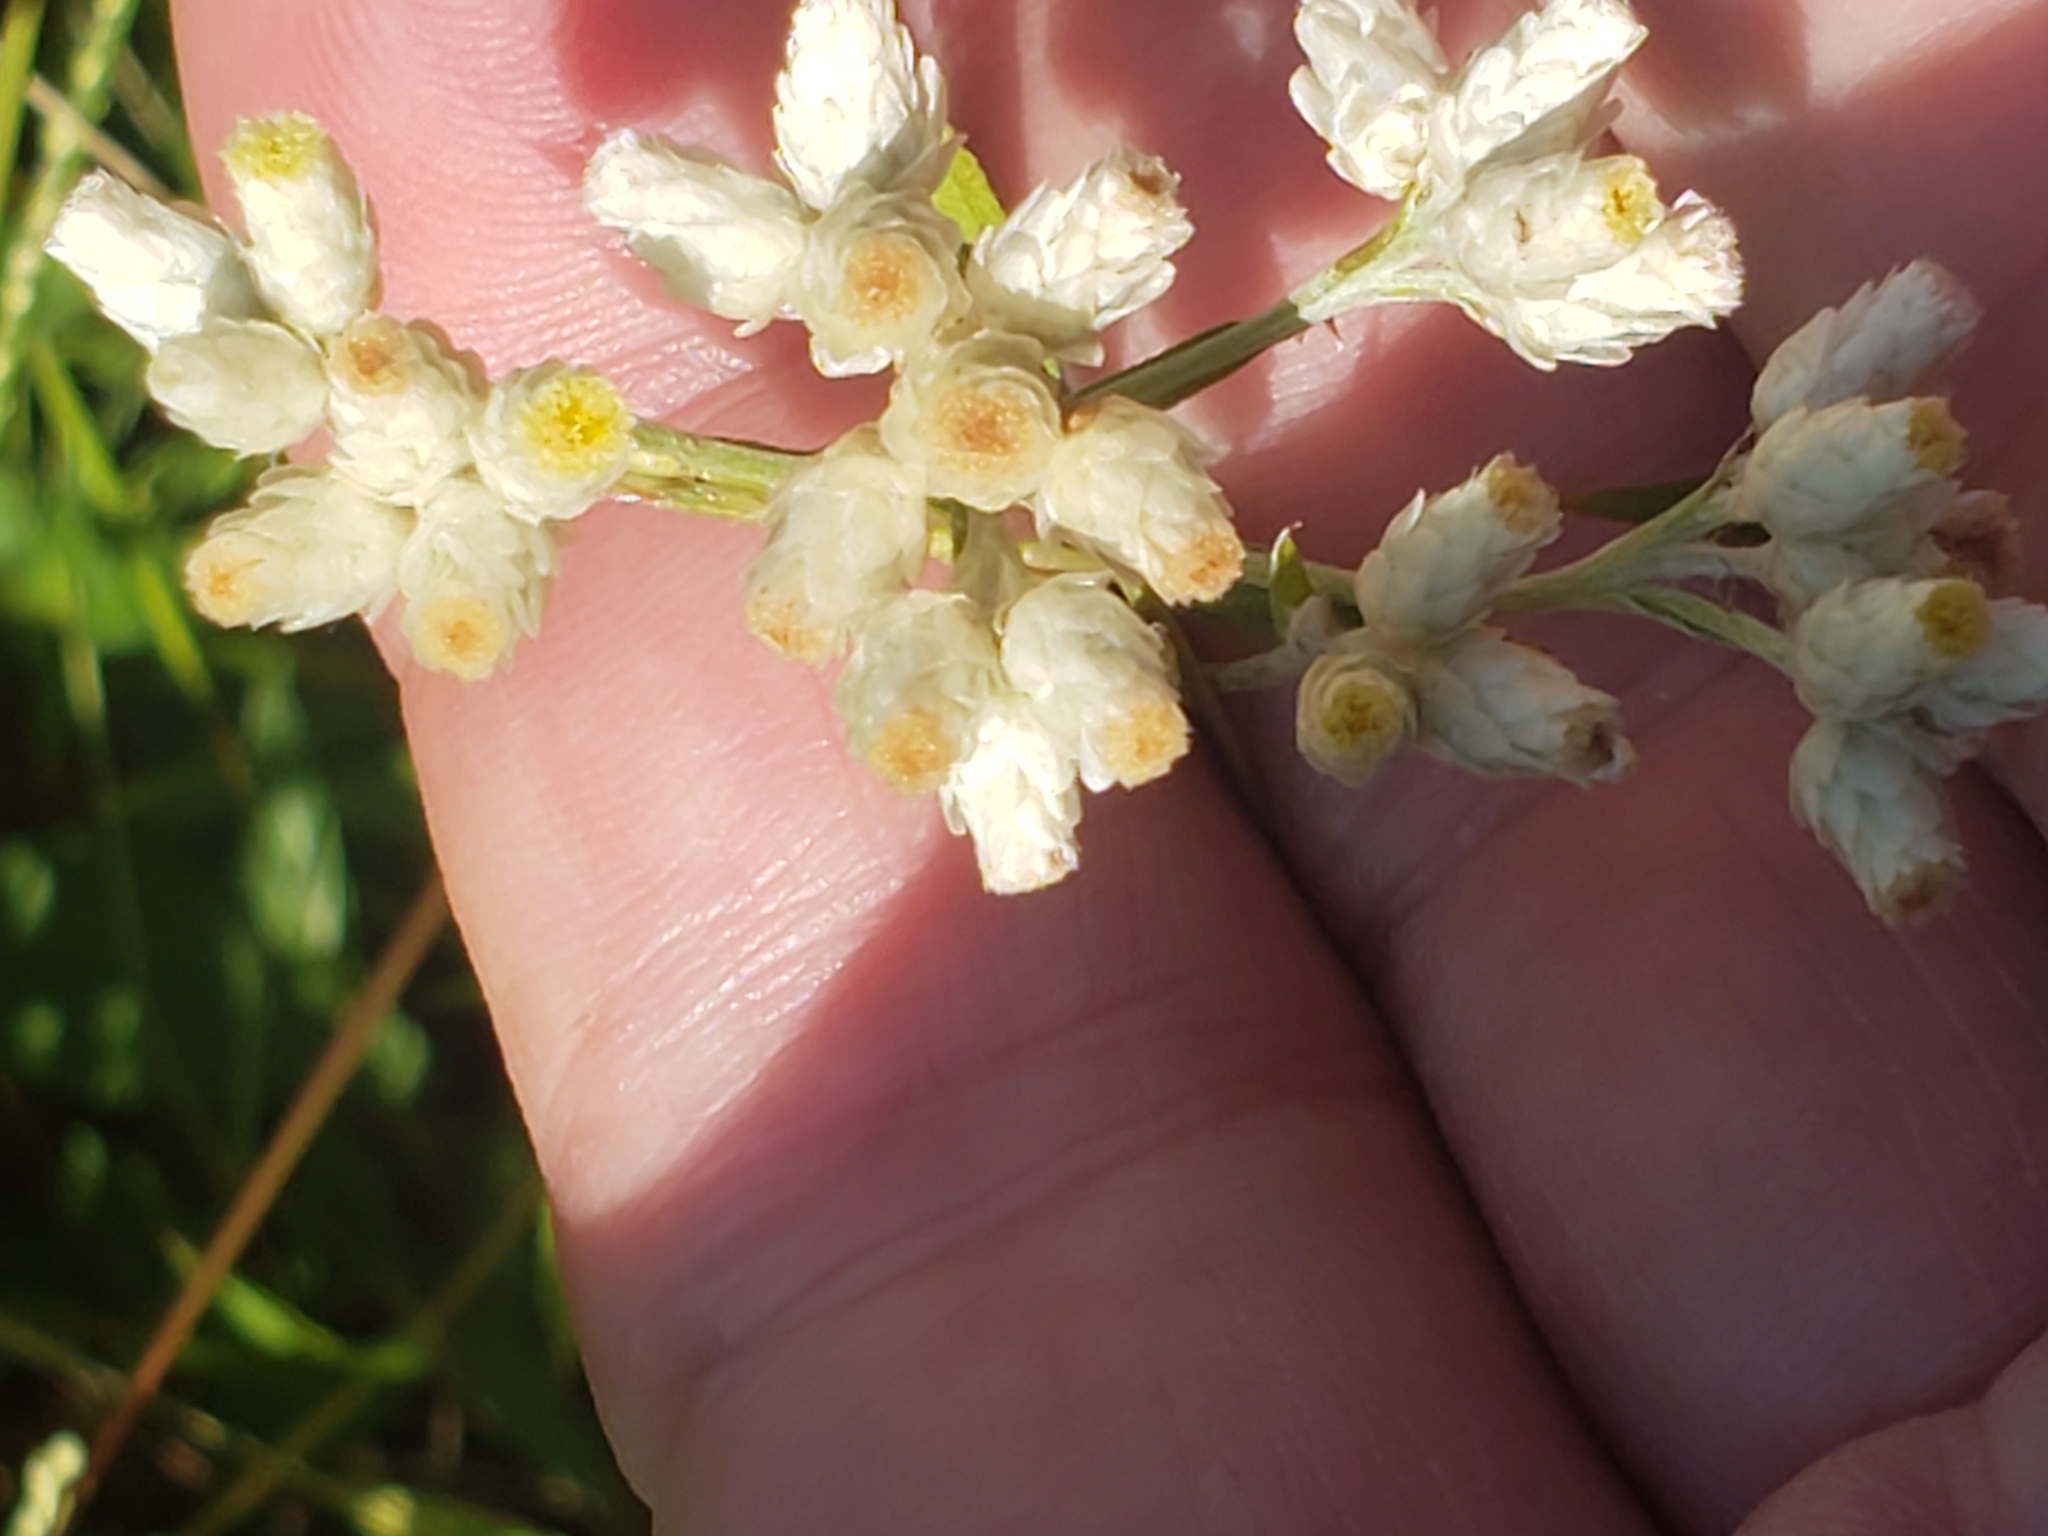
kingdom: Plantae
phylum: Tracheophyta
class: Magnoliopsida
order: Asterales
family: Asteraceae
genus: Pseudognaphalium
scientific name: Pseudognaphalium obtusifolium
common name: Eastern rabbit-tobacco
